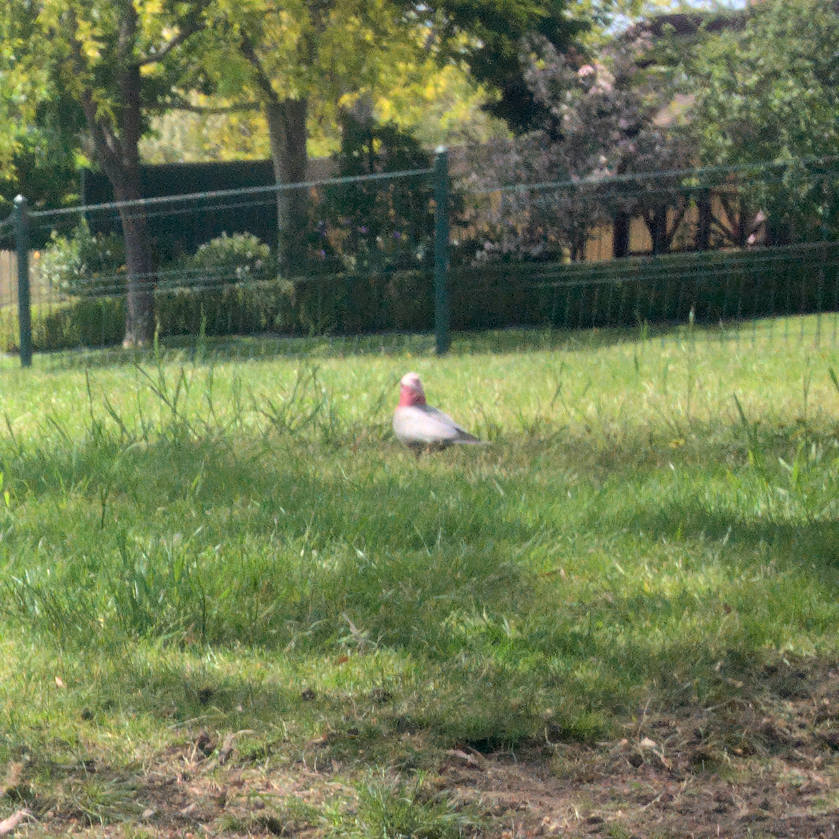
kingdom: Animalia
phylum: Chordata
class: Aves
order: Psittaciformes
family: Psittacidae
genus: Eolophus
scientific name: Eolophus roseicapilla
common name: Galah
